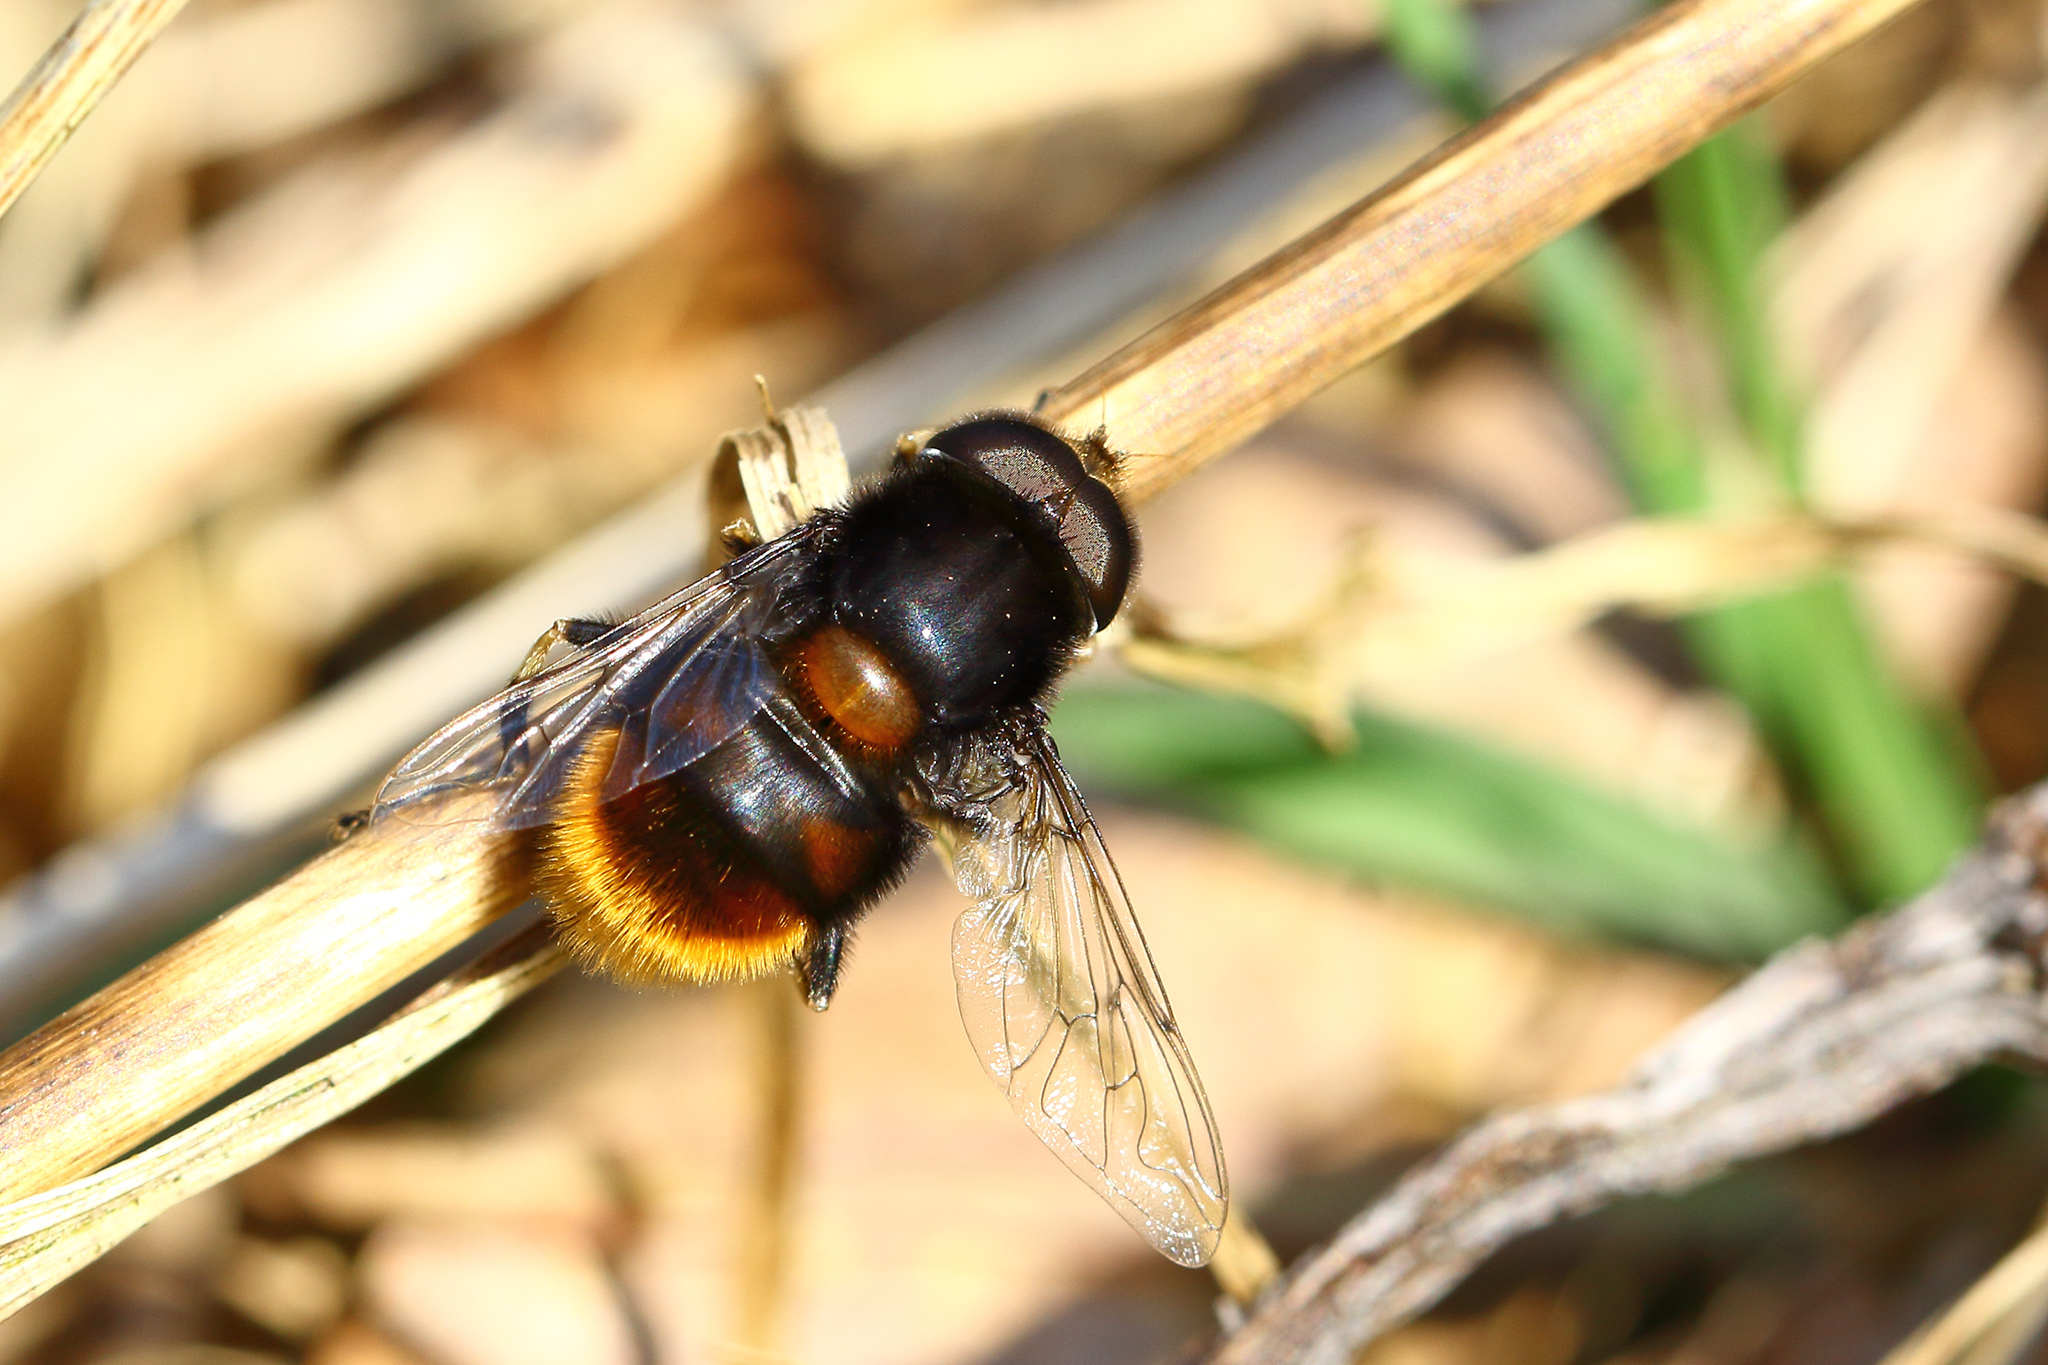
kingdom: Animalia
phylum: Arthropoda
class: Insecta
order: Diptera
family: Syrphidae
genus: Eristalis
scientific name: Eristalis intricaria
